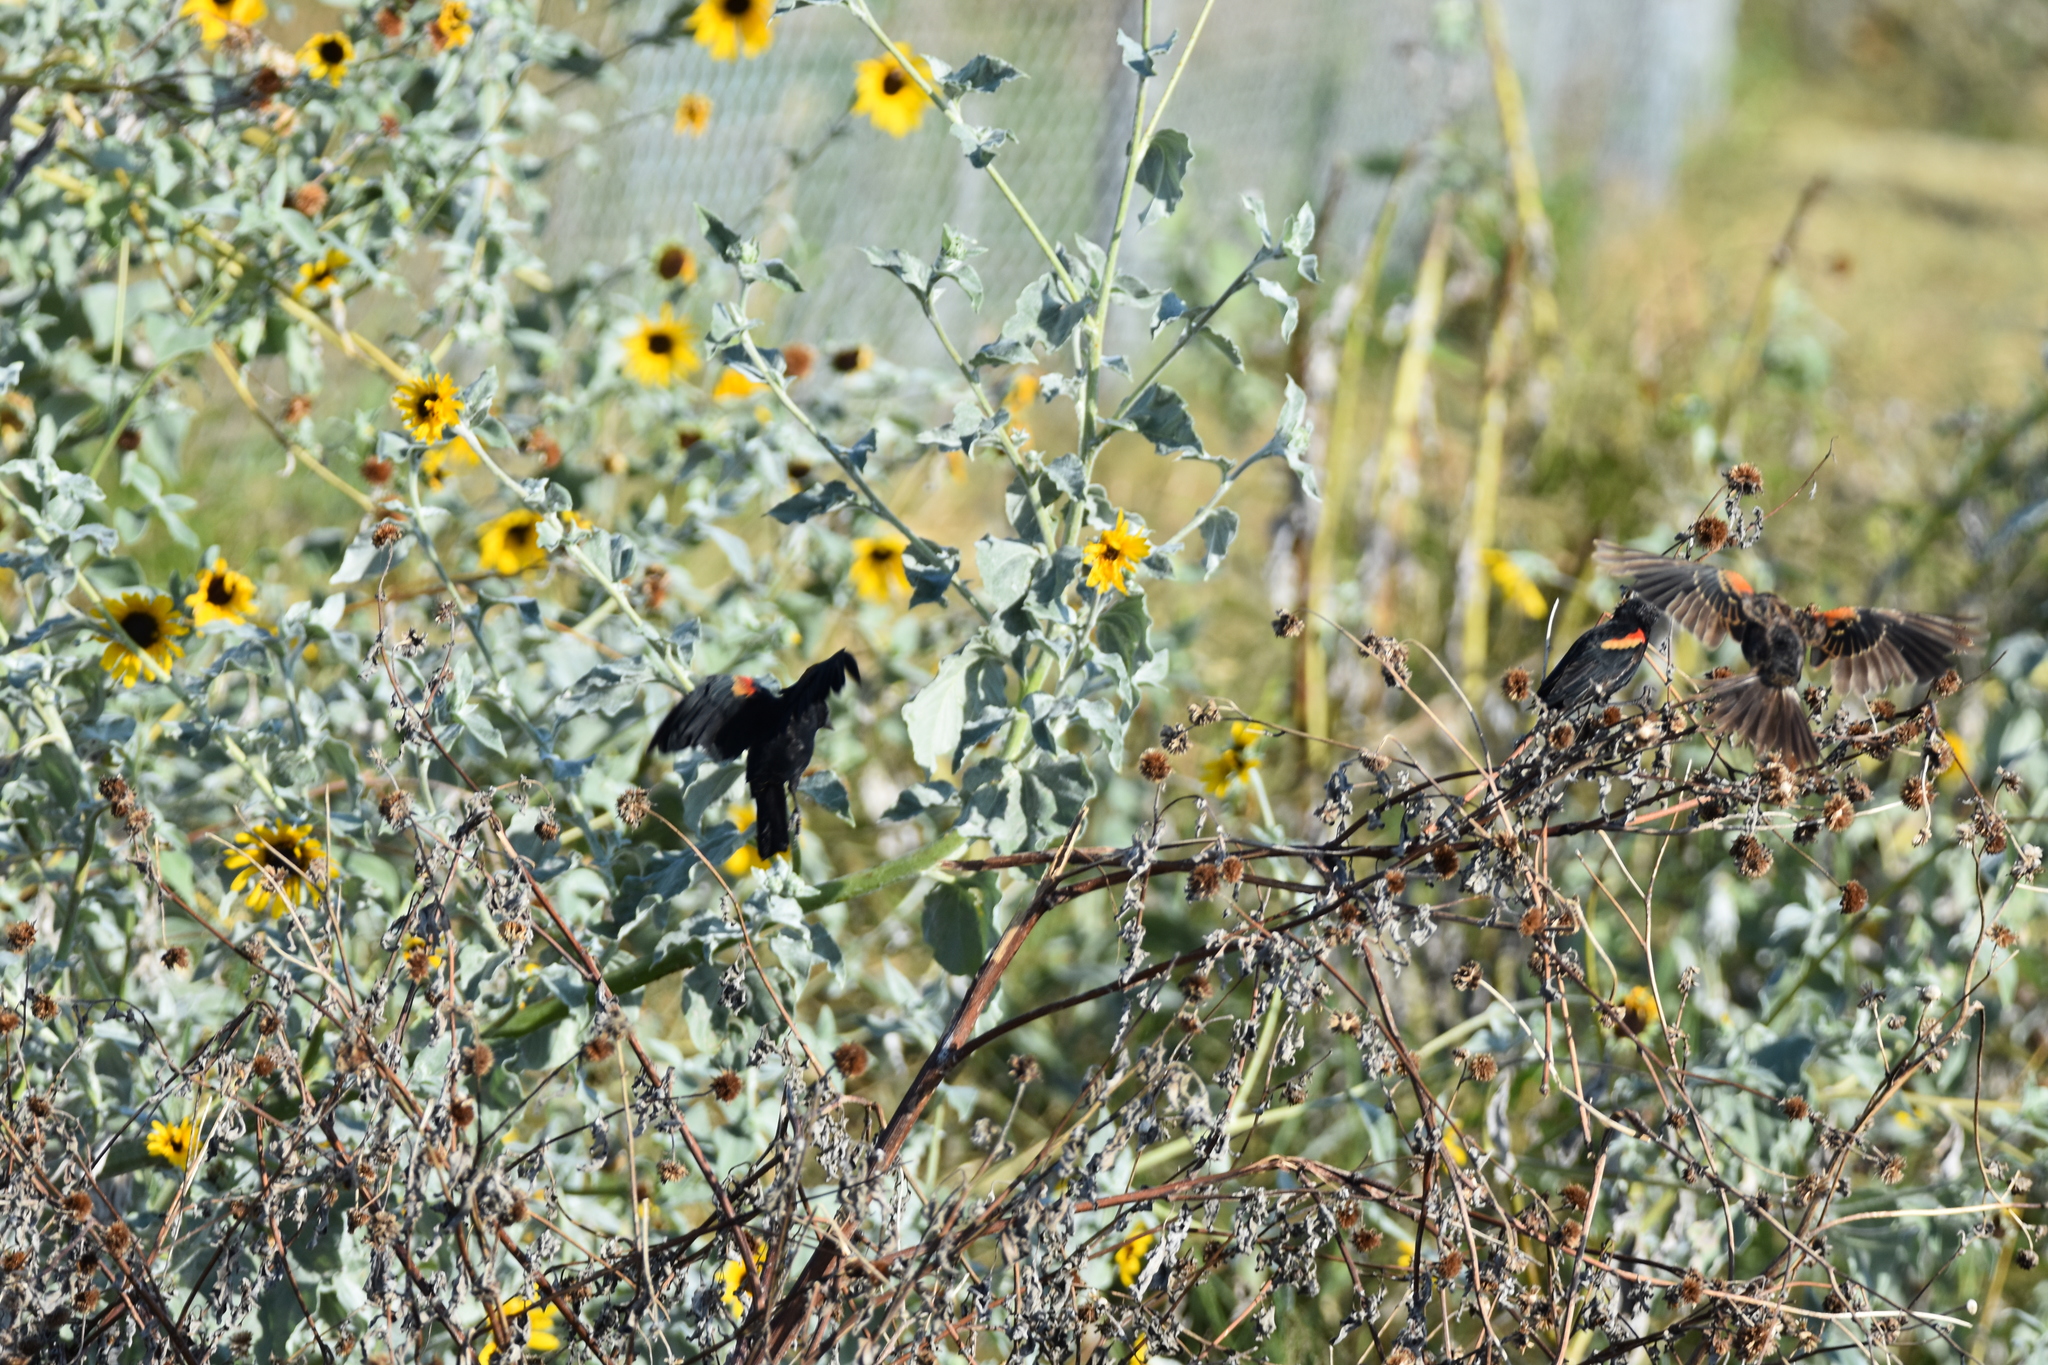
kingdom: Animalia
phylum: Chordata
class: Aves
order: Passeriformes
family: Icteridae
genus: Agelaius
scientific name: Agelaius phoeniceus
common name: Red-winged blackbird
